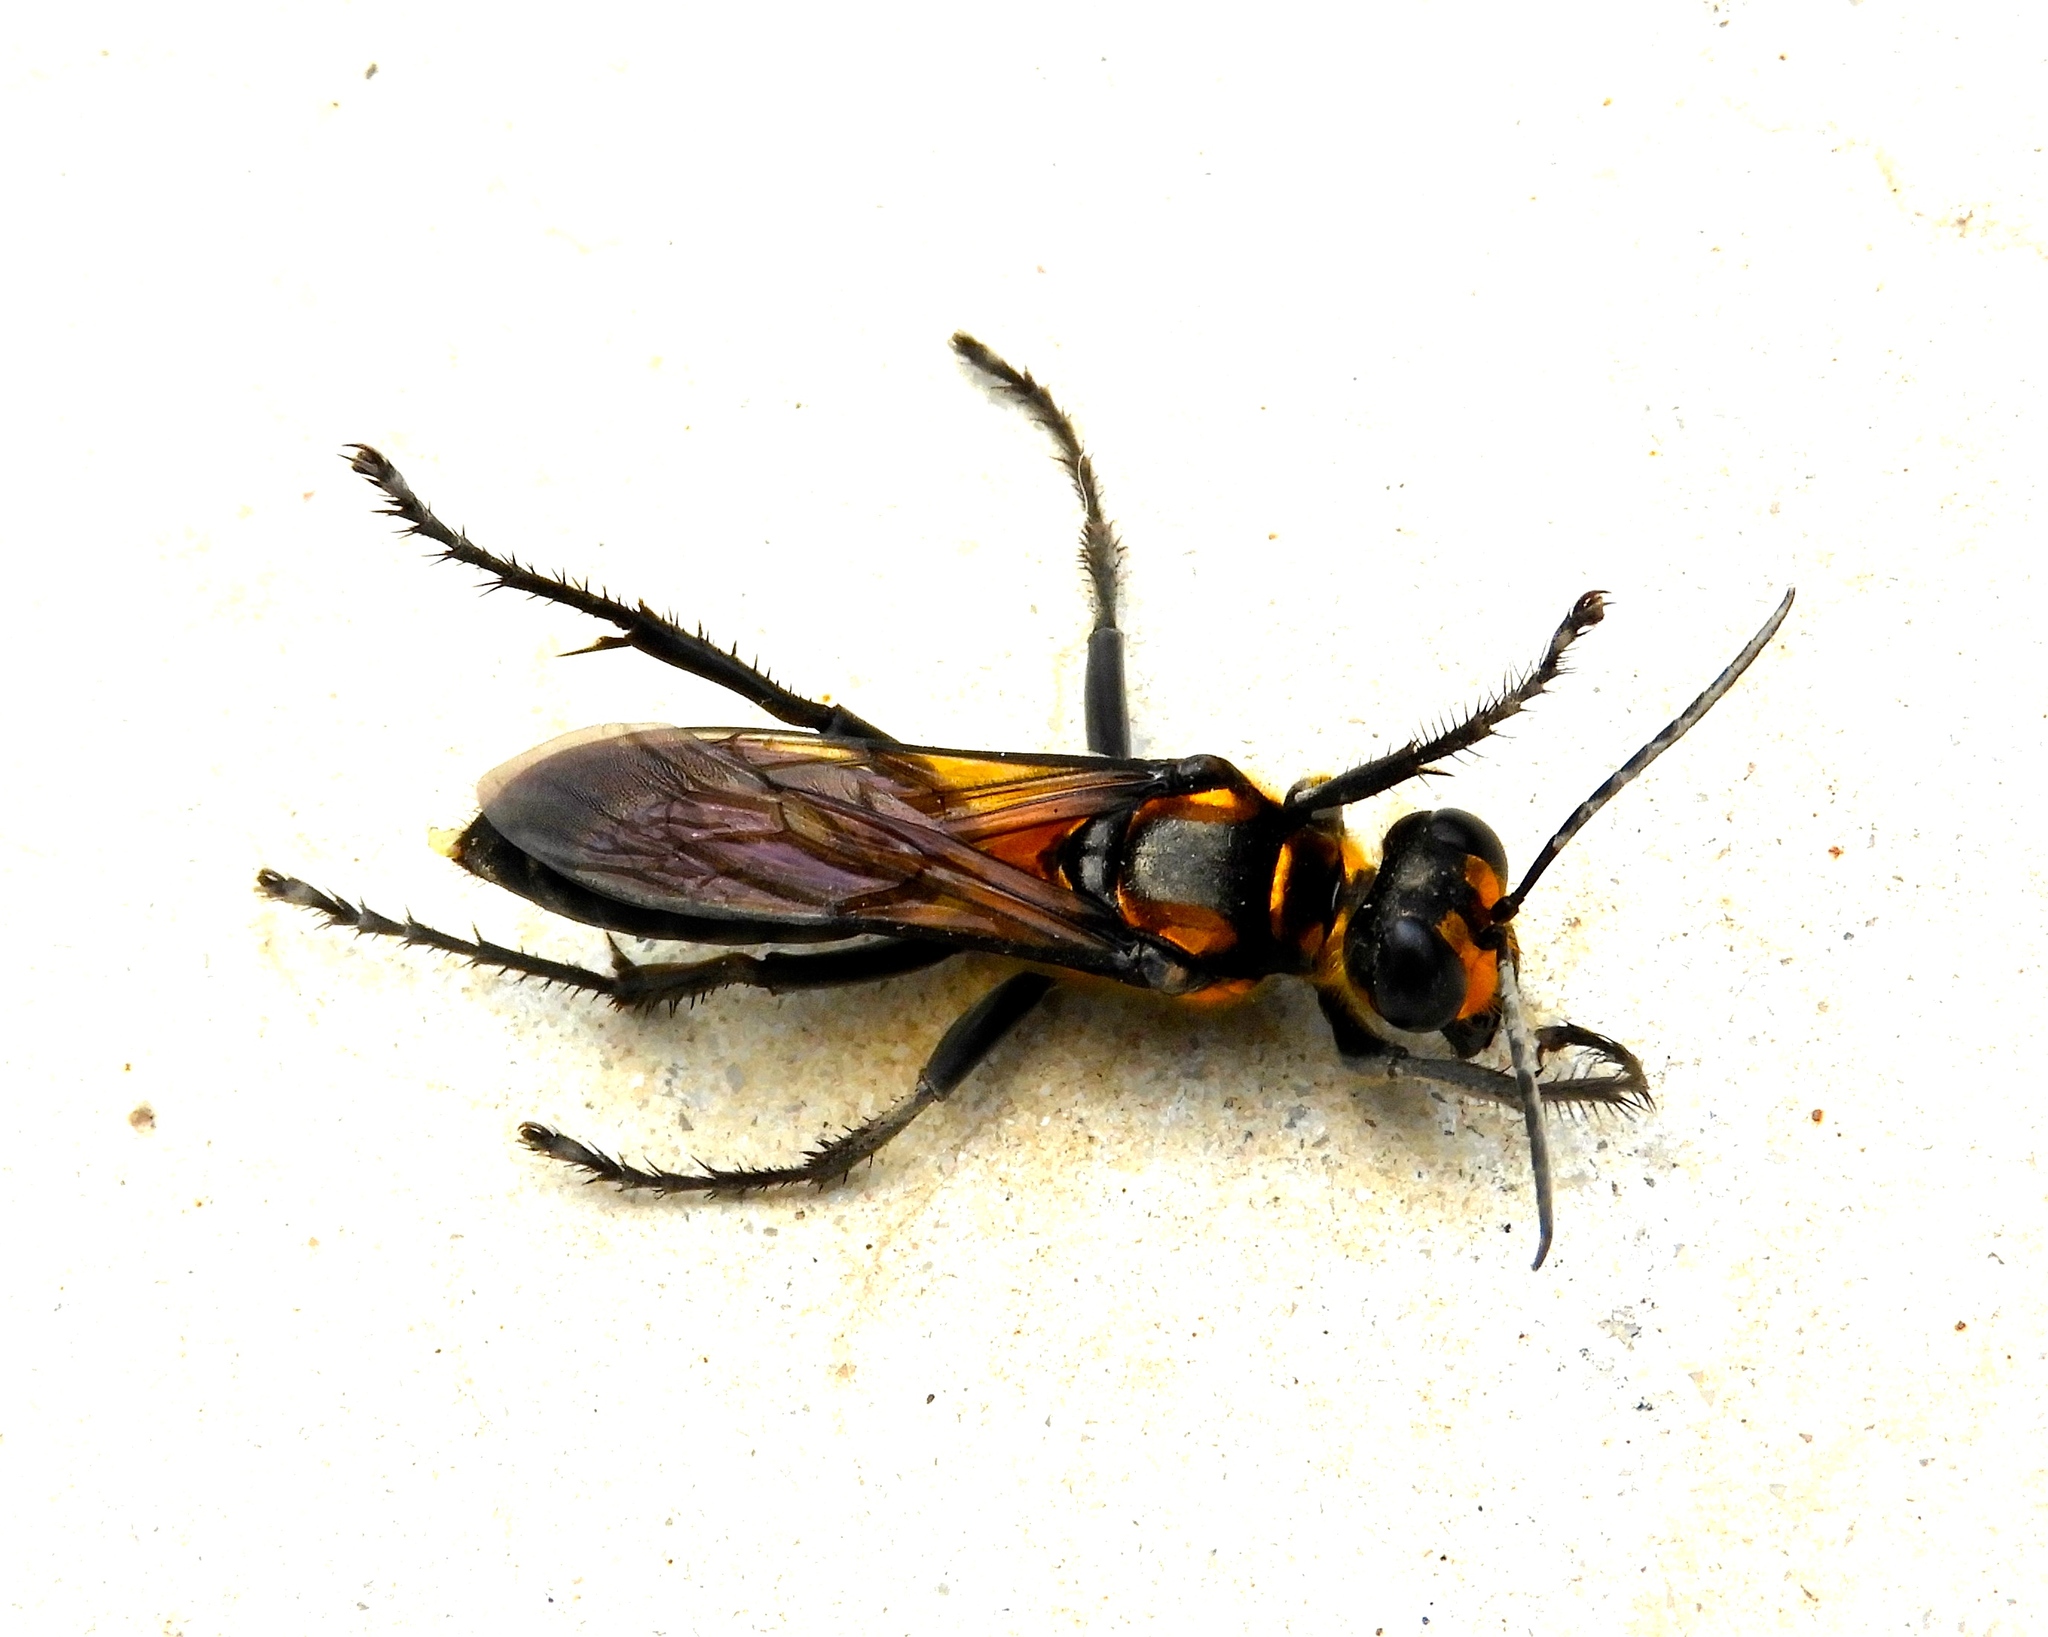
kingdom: Animalia
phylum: Arthropoda
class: Insecta
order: Hymenoptera
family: Sphecidae
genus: Sphex
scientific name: Sphex
